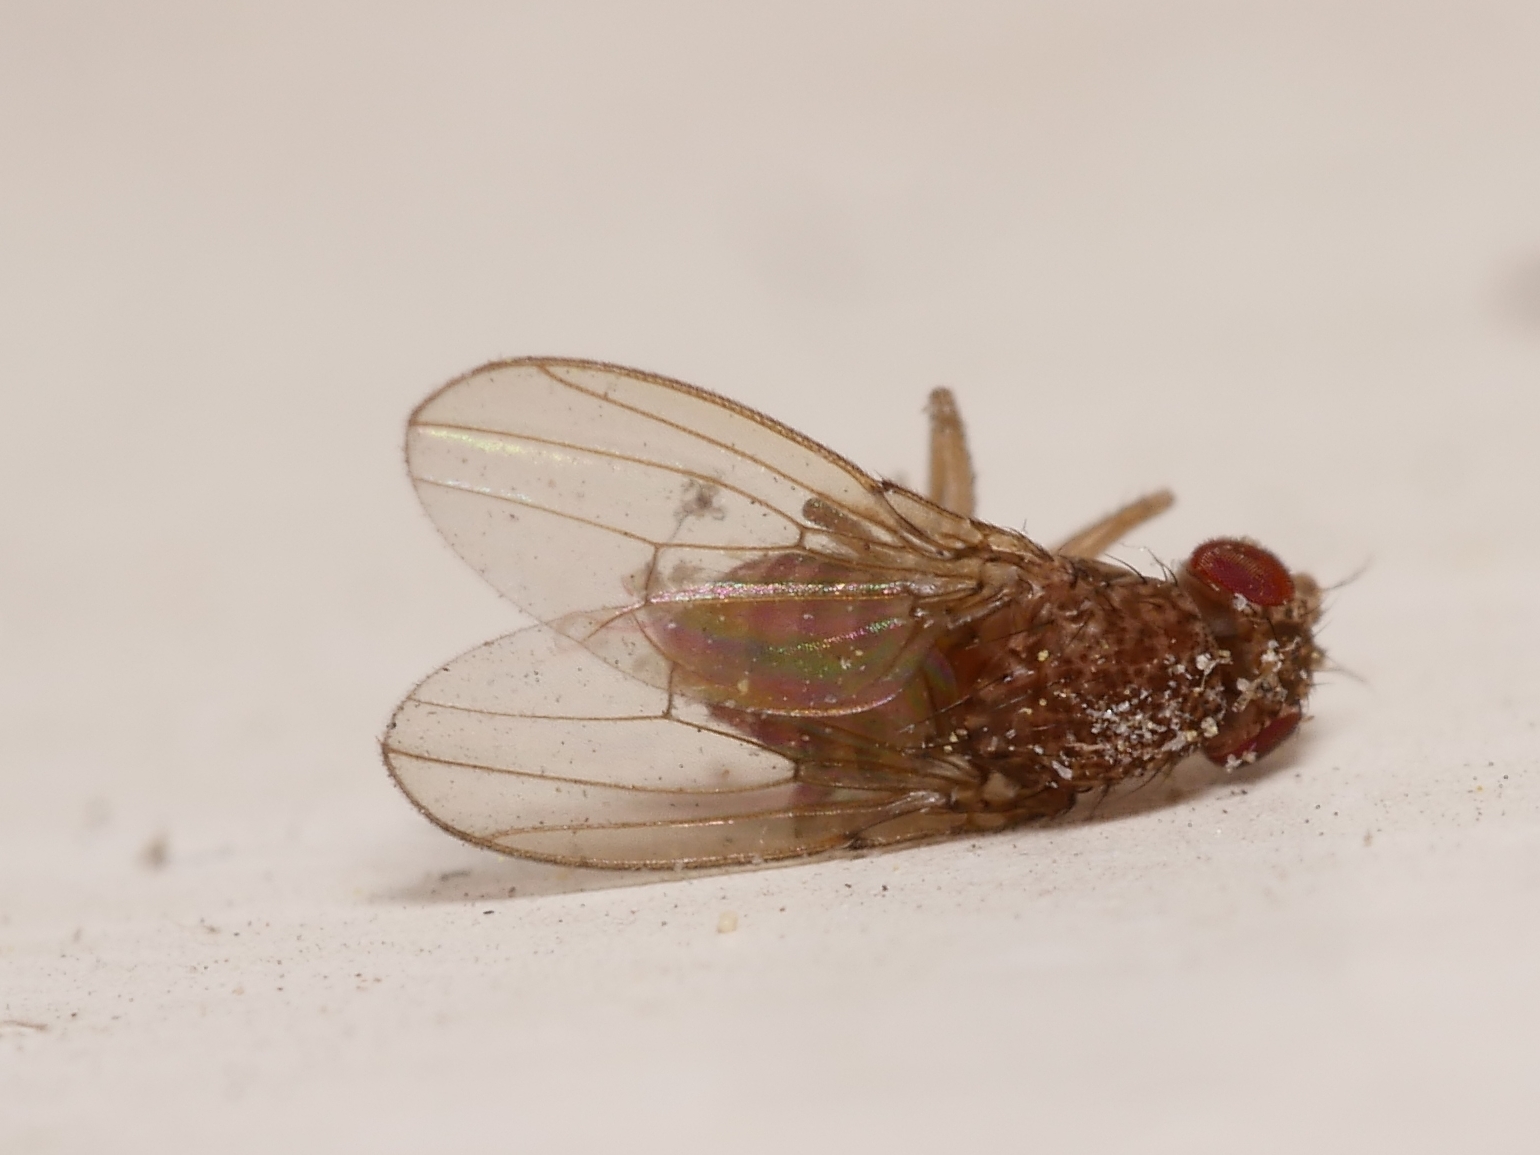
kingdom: Animalia
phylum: Arthropoda
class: Insecta
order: Diptera
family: Drosophilidae
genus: Drosophila
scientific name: Drosophila repleta
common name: Pomace fly
